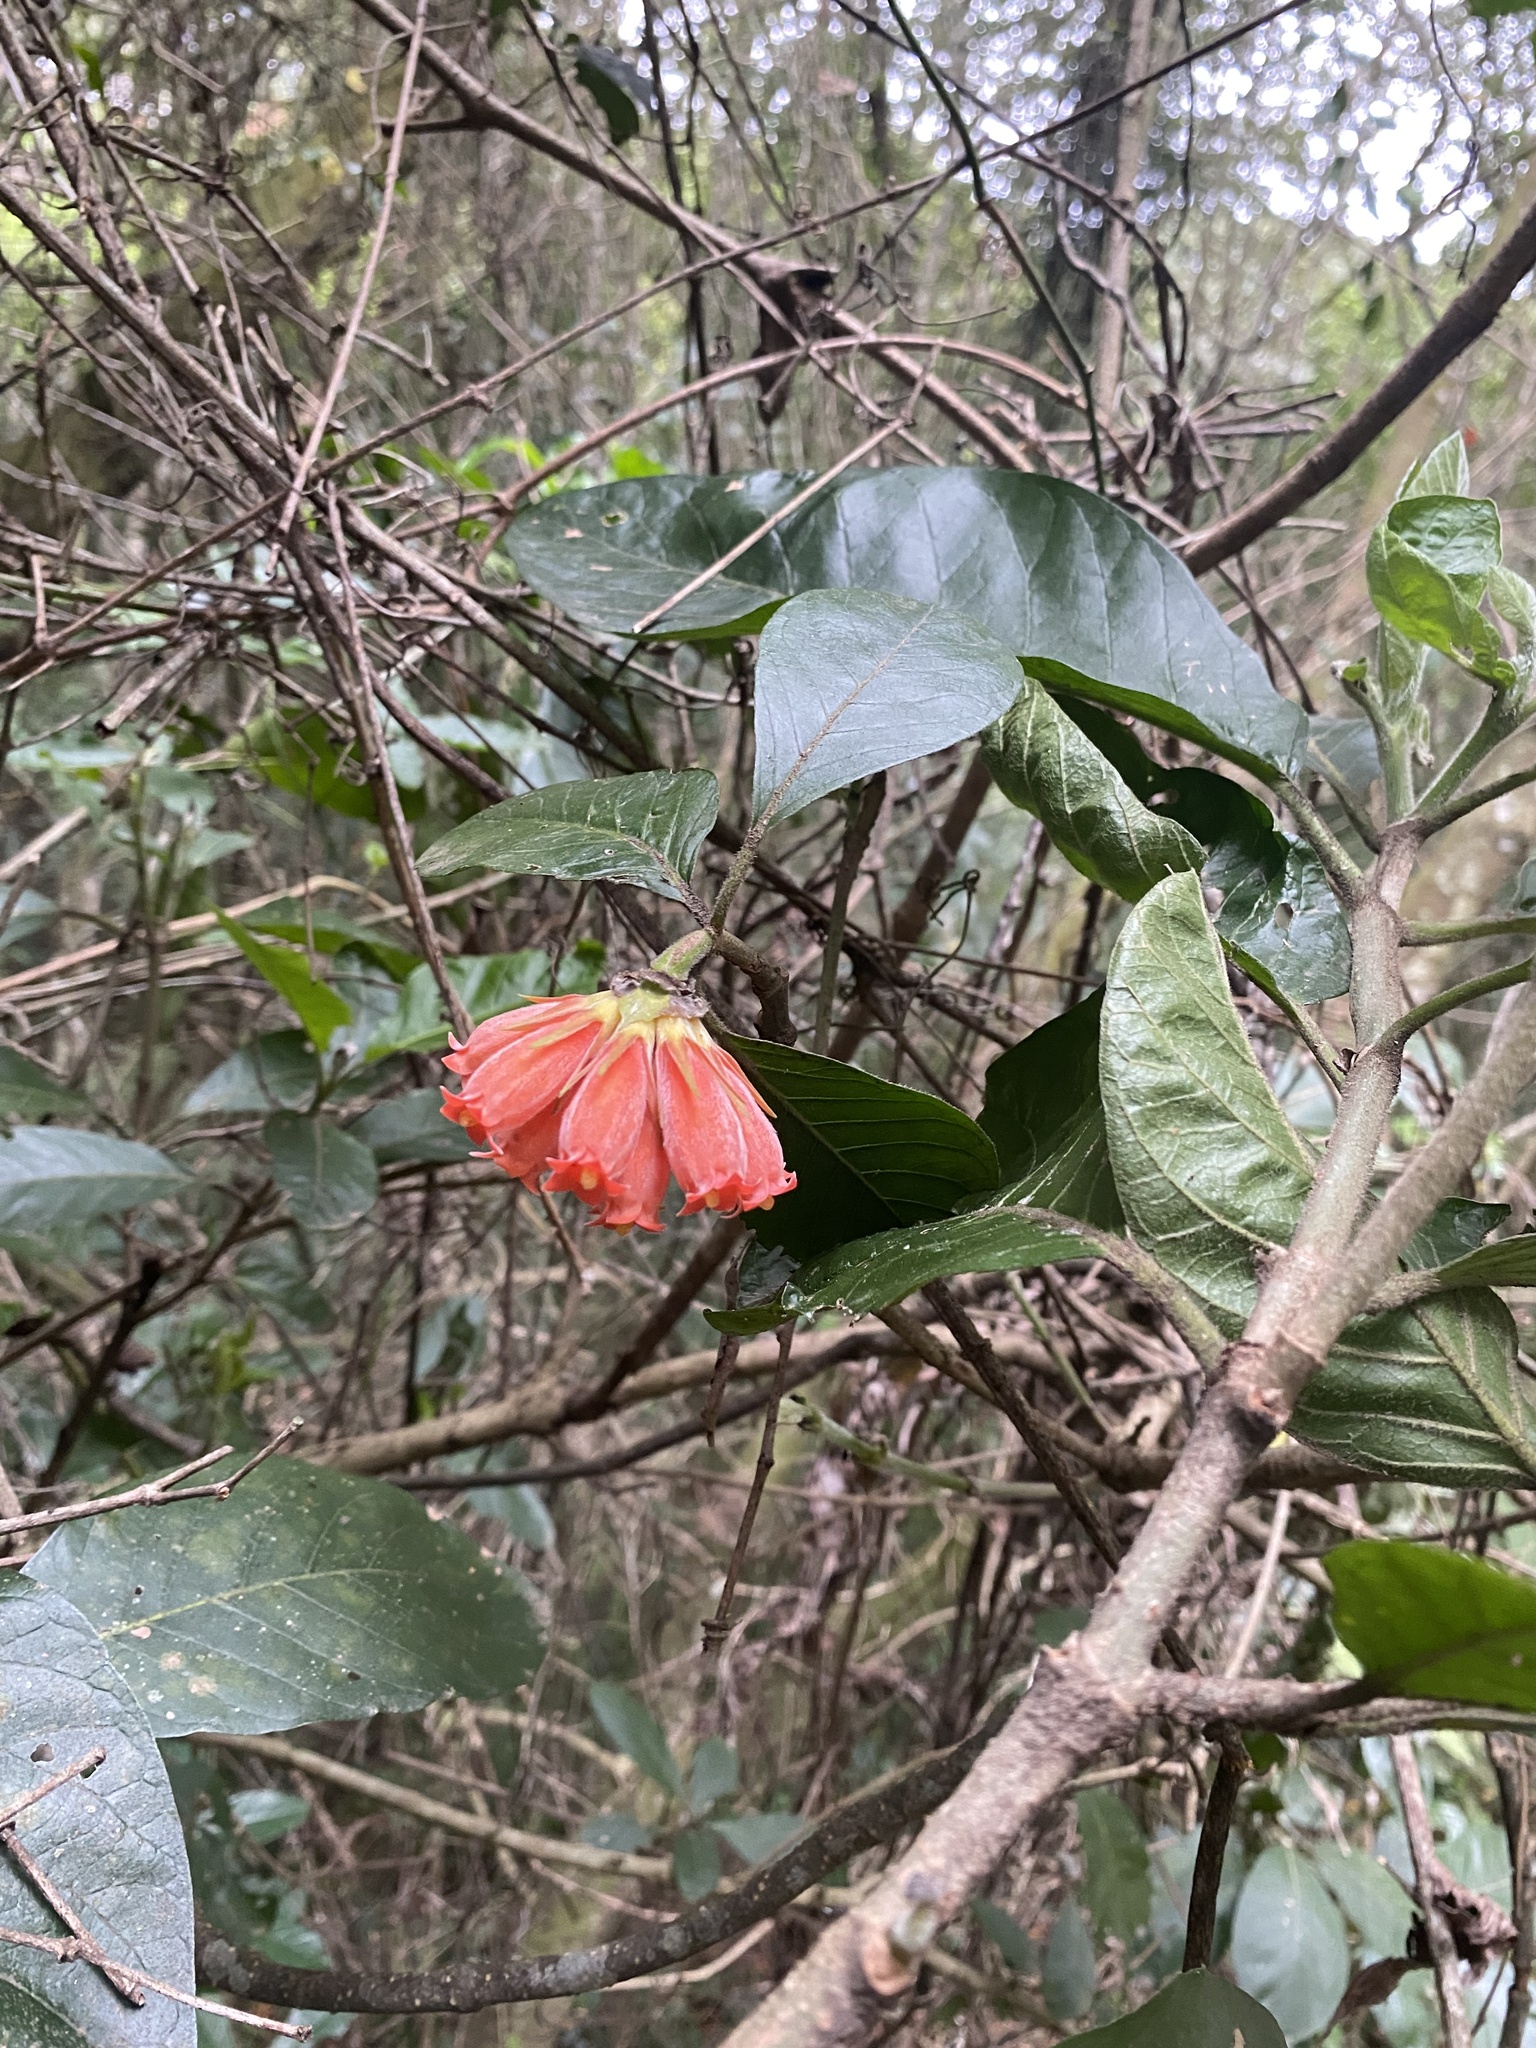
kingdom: Plantae
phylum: Tracheophyta
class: Magnoliopsida
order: Gentianales
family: Rubiaceae
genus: Burchellia
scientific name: Burchellia bubalina
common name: Wild pomegranate
